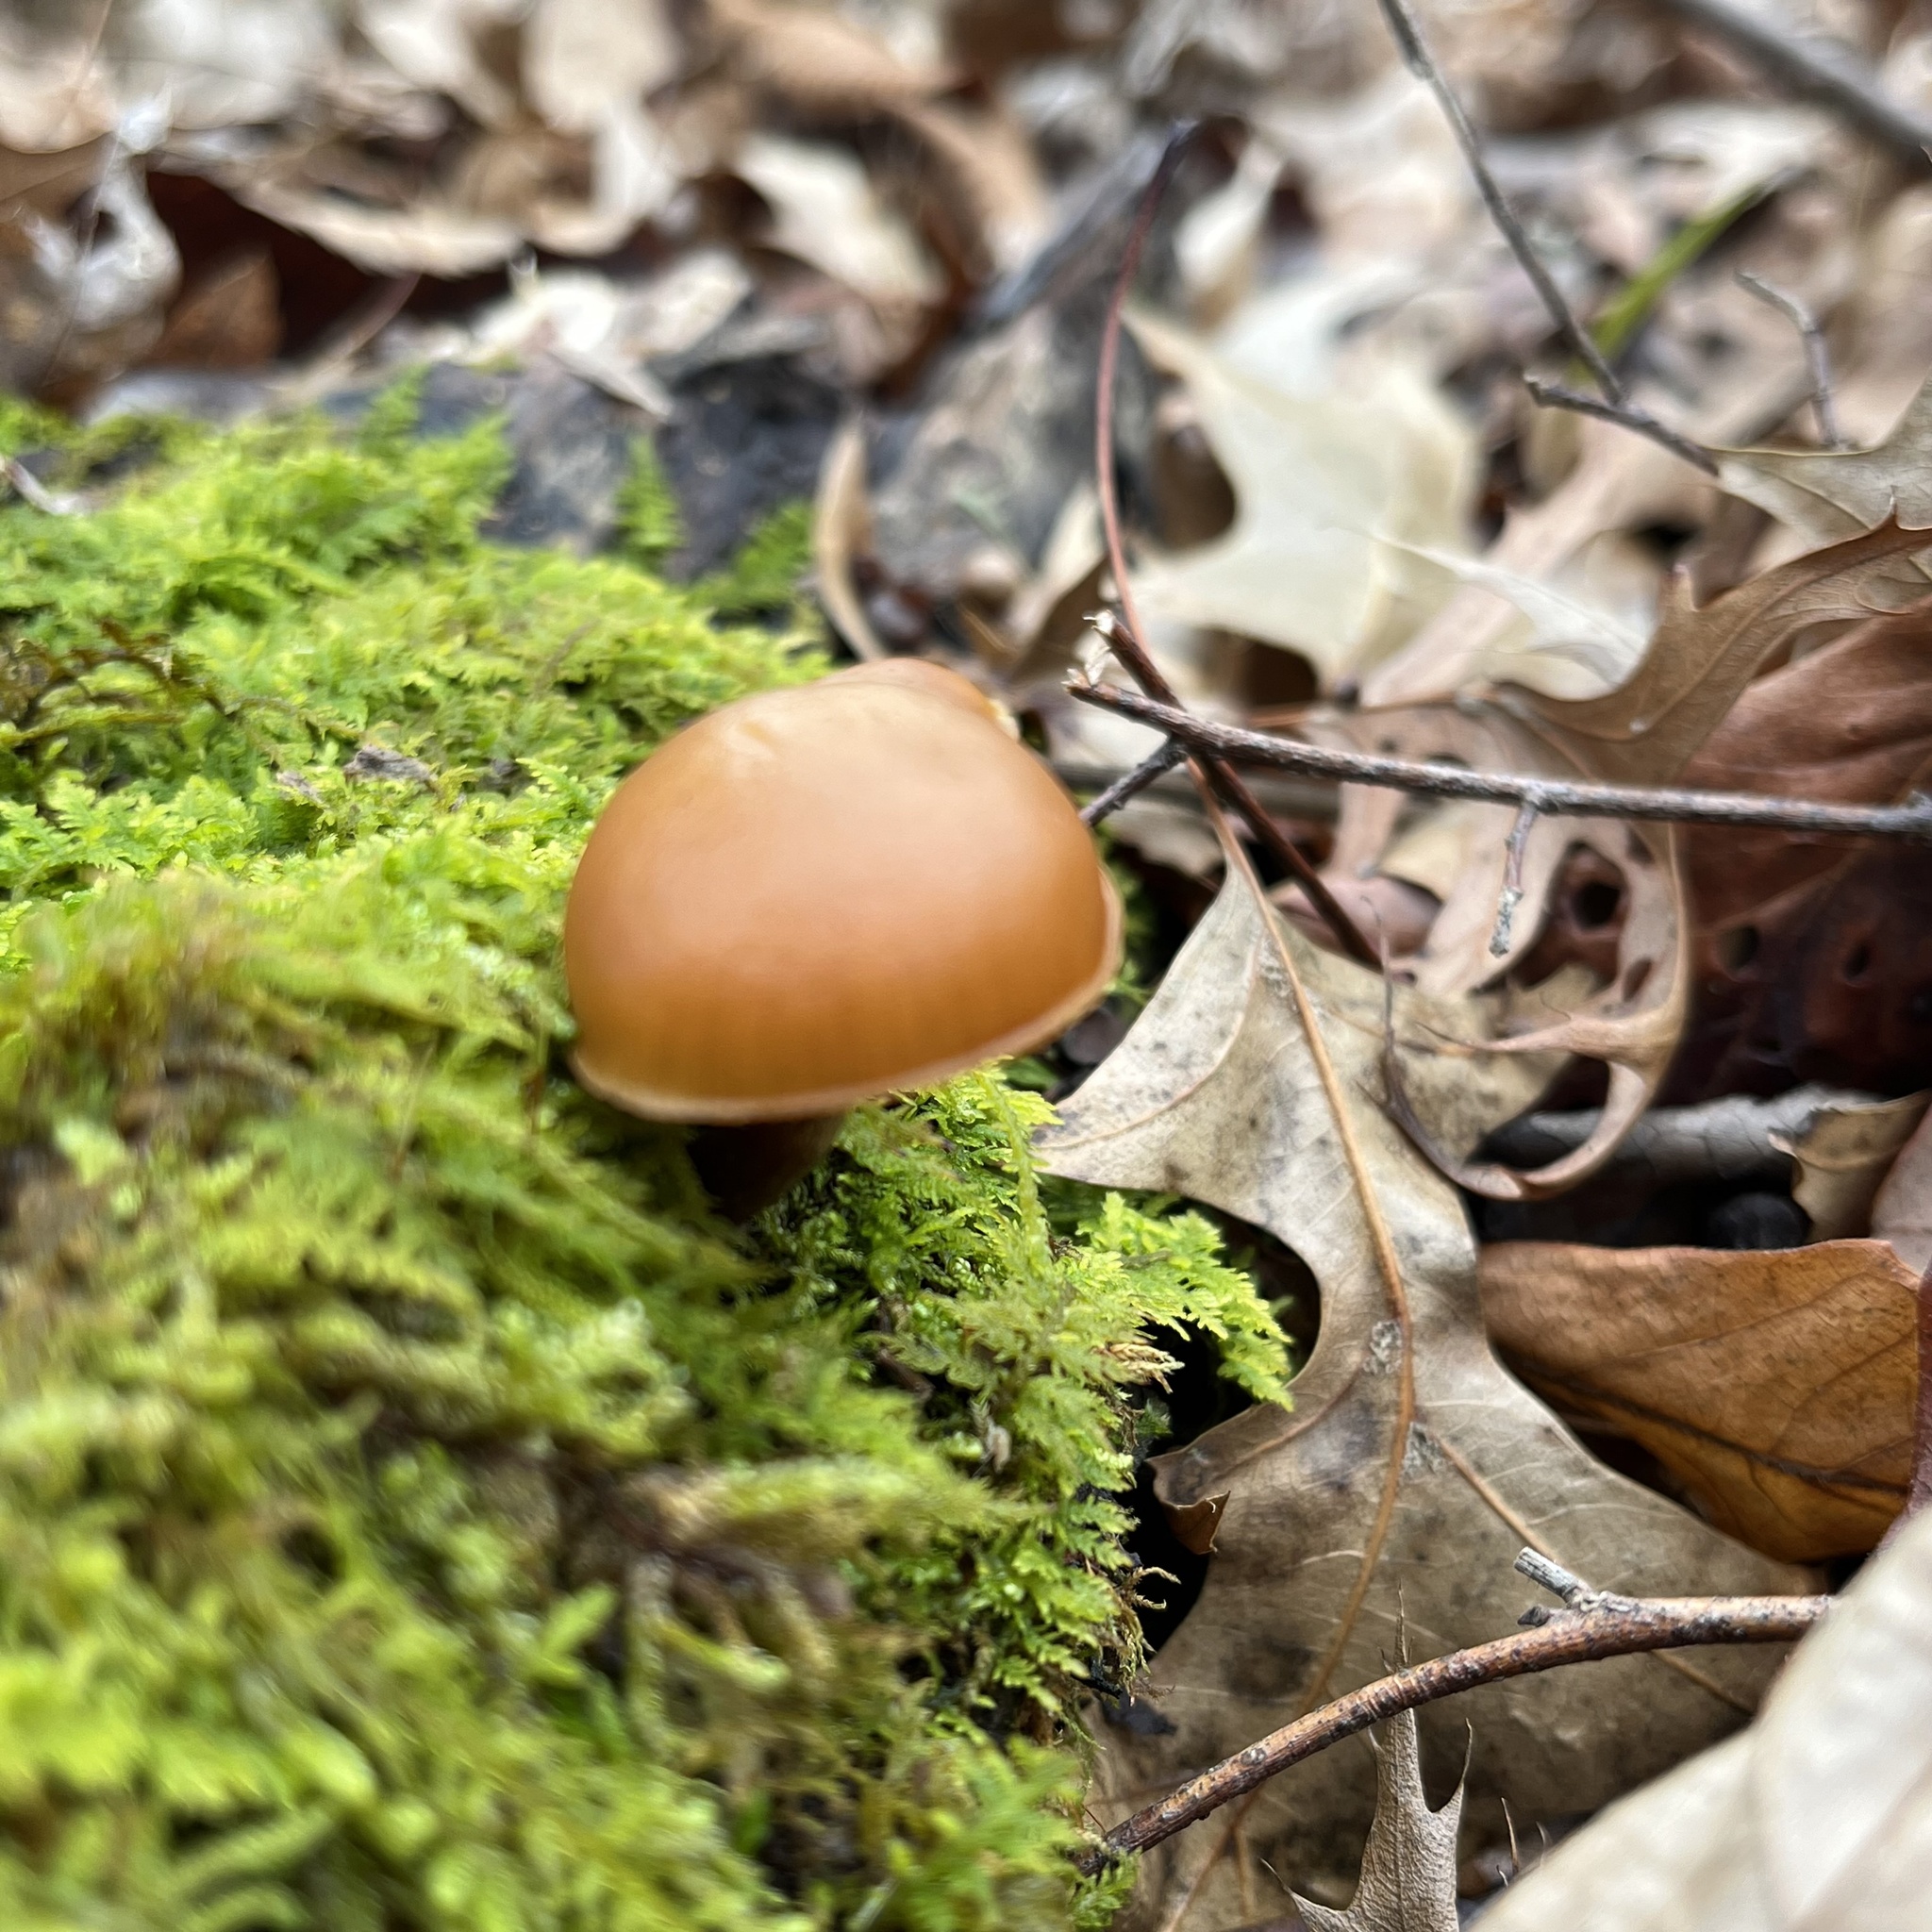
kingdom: Fungi
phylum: Basidiomycota
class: Agaricomycetes
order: Agaricales
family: Hymenogastraceae
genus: Galerina
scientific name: Galerina marginata
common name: Funeral bell
